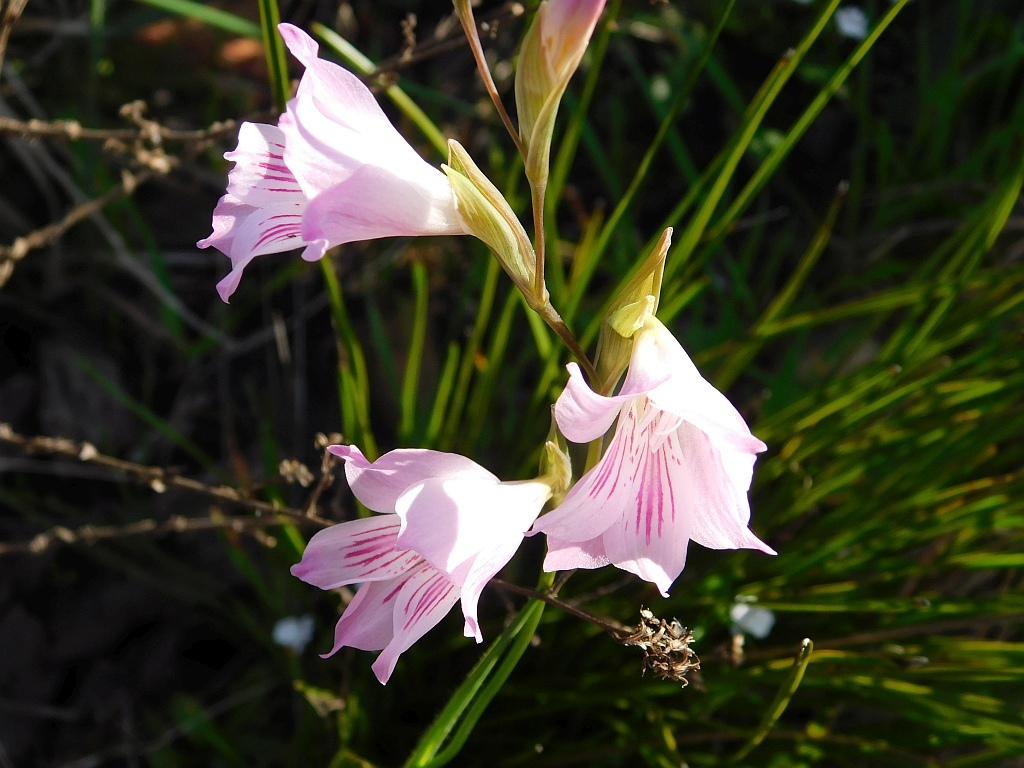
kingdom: Plantae
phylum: Tracheophyta
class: Liliopsida
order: Asparagales
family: Iridaceae
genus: Gladiolus
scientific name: Gladiolus hirsutus
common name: Small pink afrikaner
